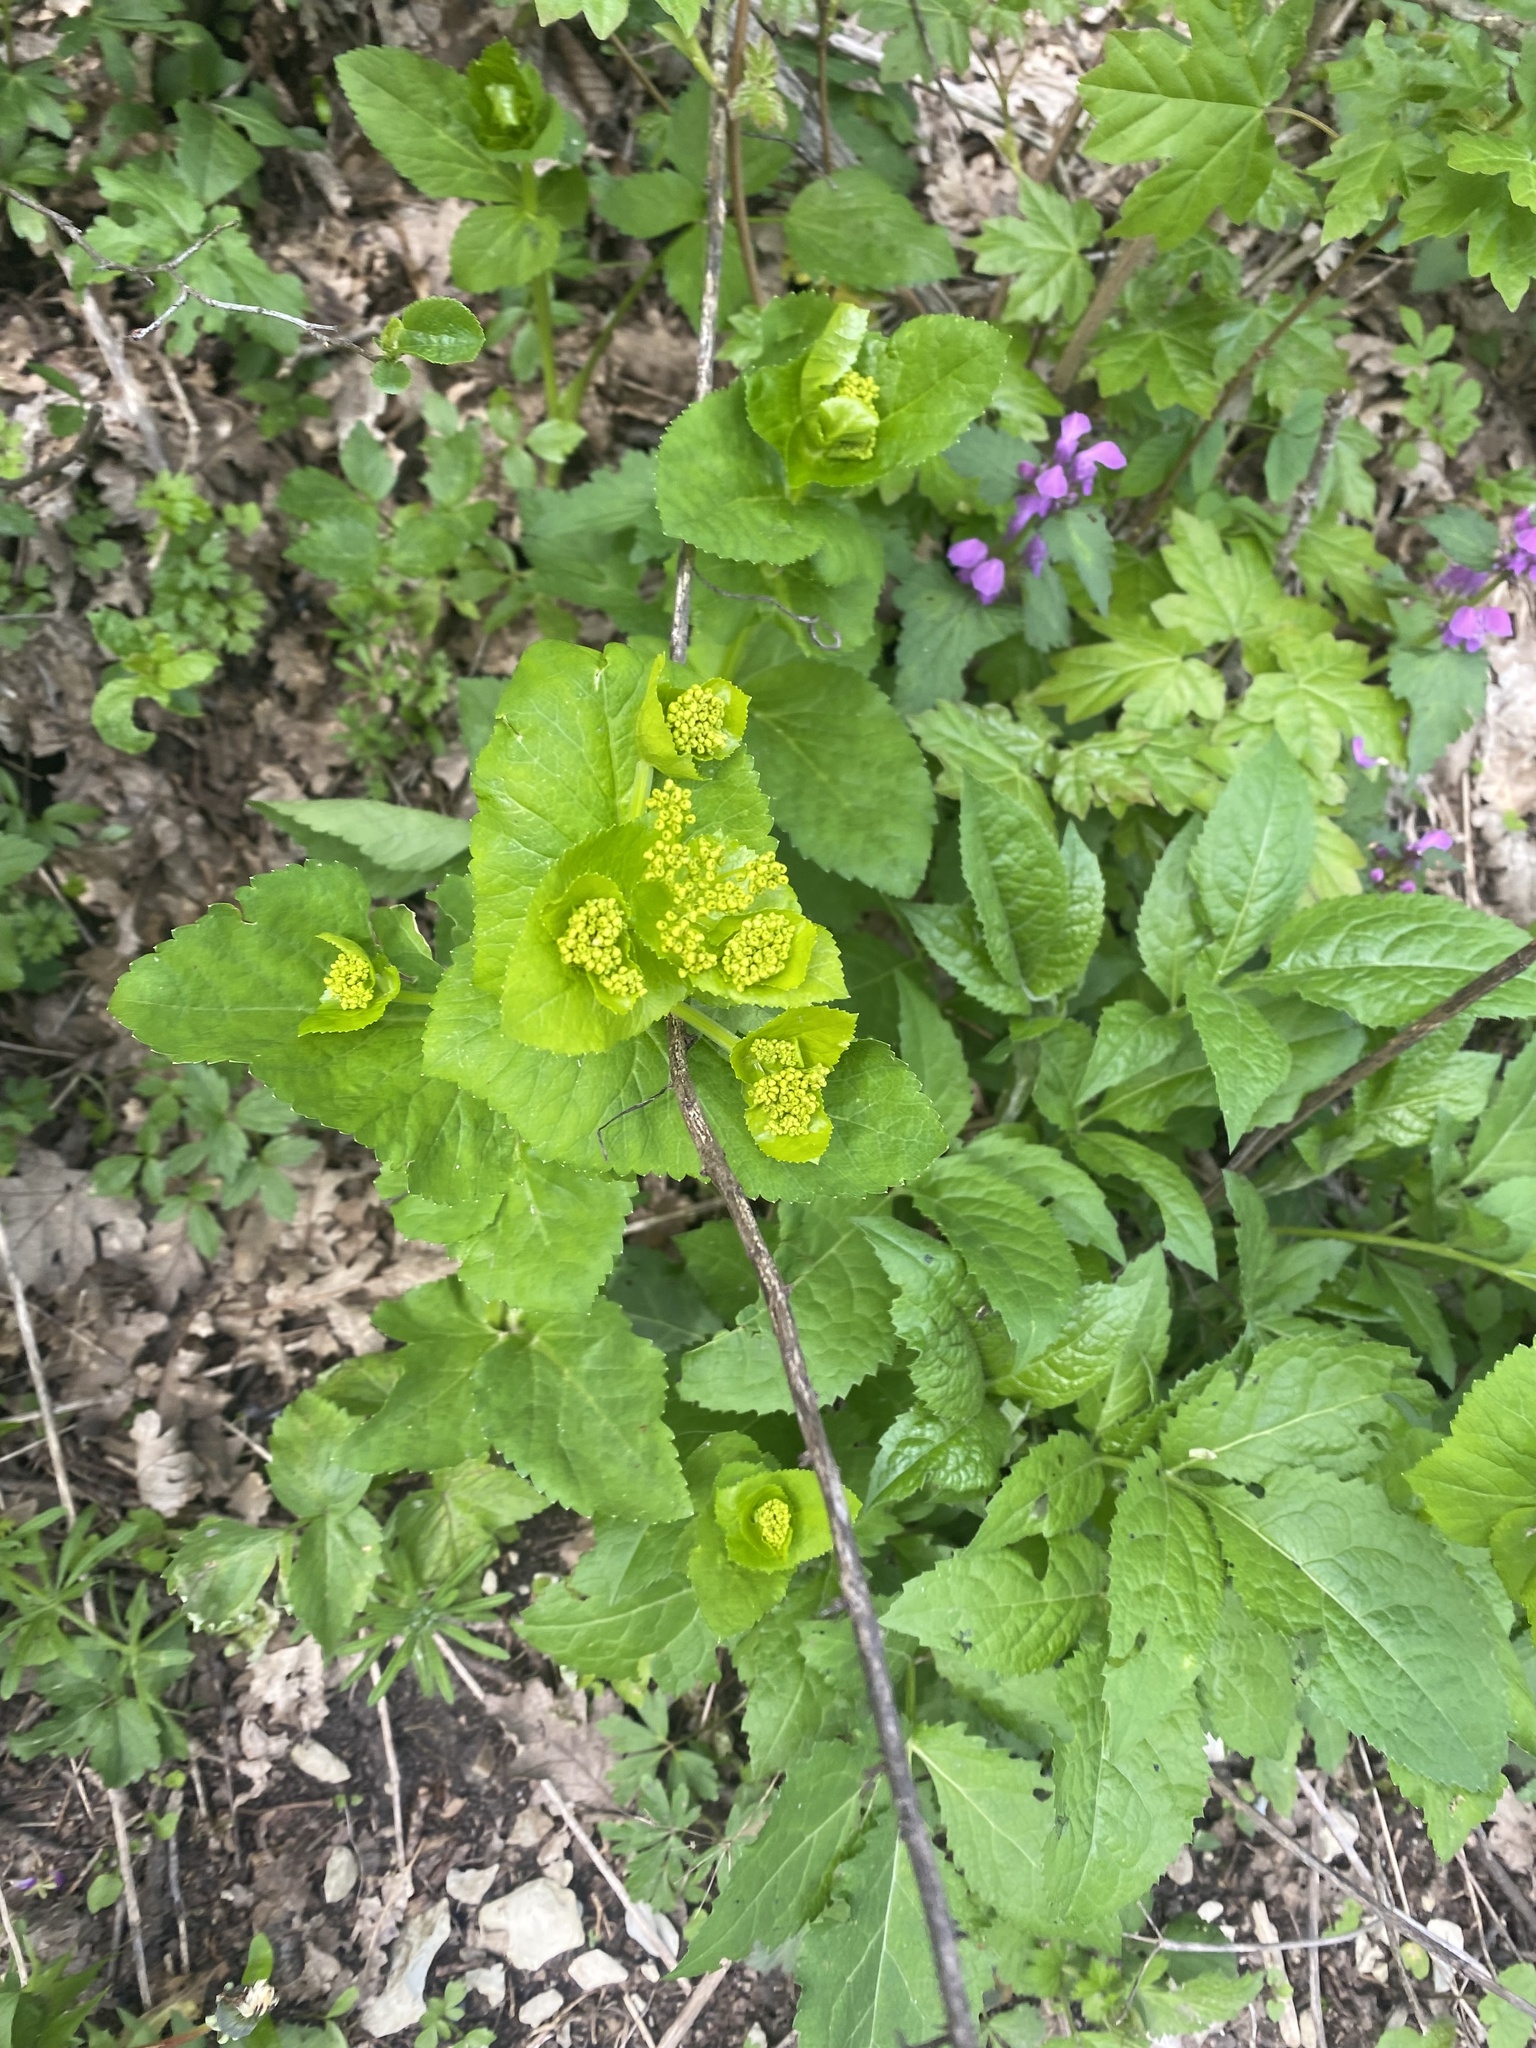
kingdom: Plantae
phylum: Tracheophyta
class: Magnoliopsida
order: Apiales
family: Apiaceae
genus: Smyrnium
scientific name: Smyrnium perfoliatum
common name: Perfoliate alexanders
